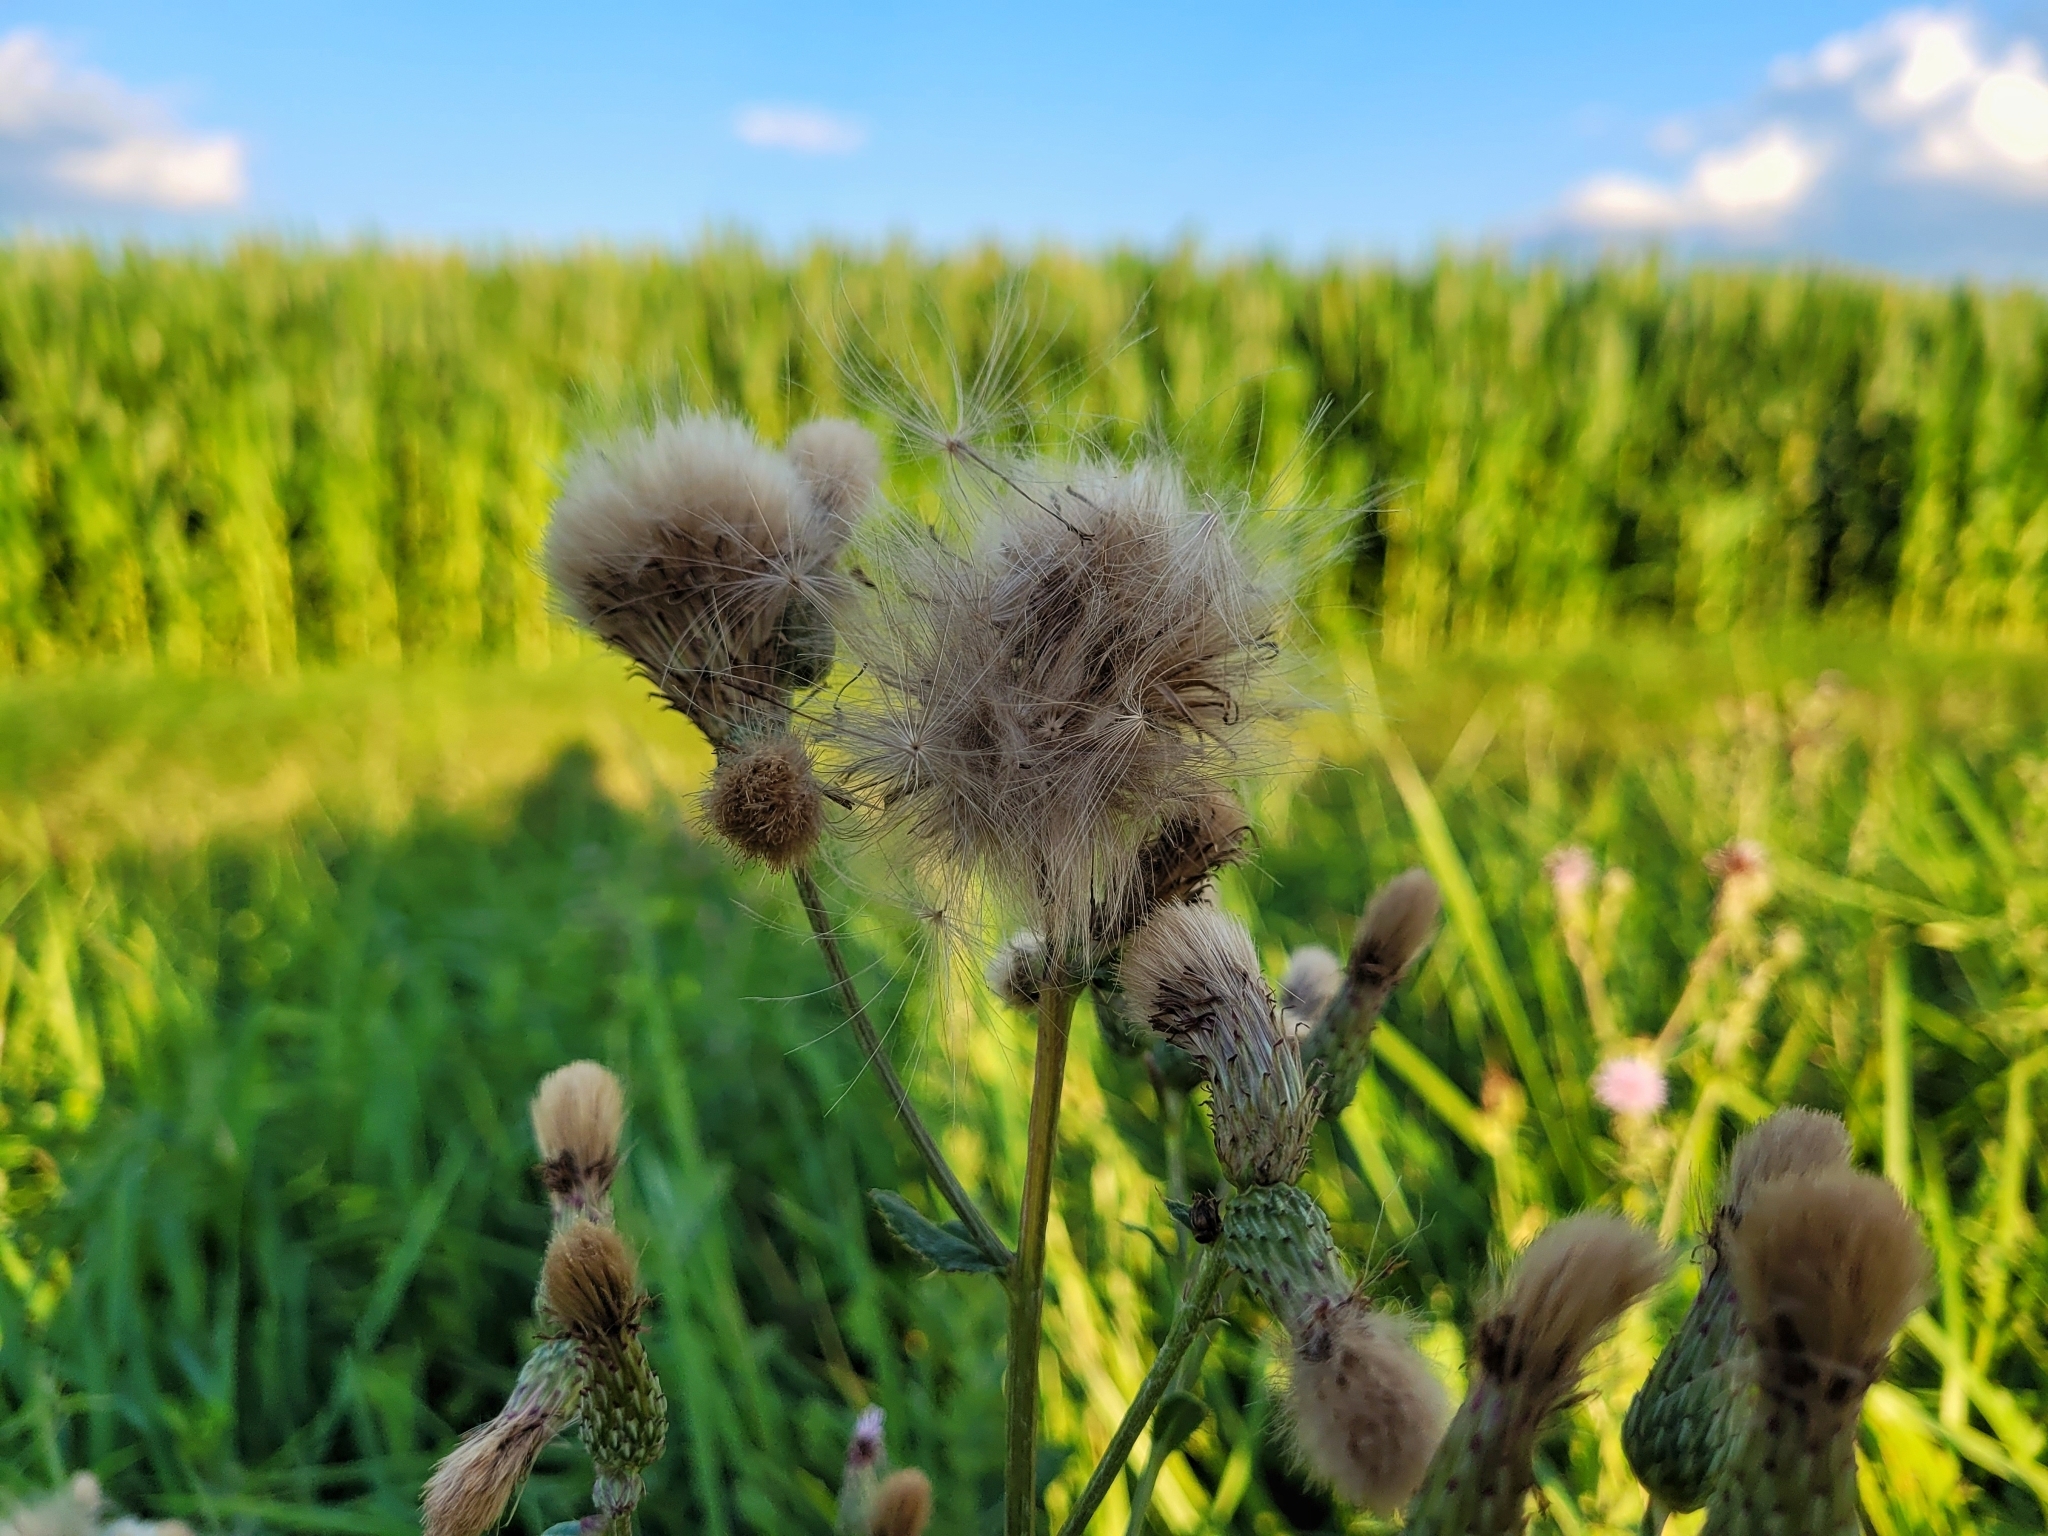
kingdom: Plantae
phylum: Tracheophyta
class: Magnoliopsida
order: Asterales
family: Asteraceae
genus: Cirsium
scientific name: Cirsium arvense
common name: Creeping thistle
